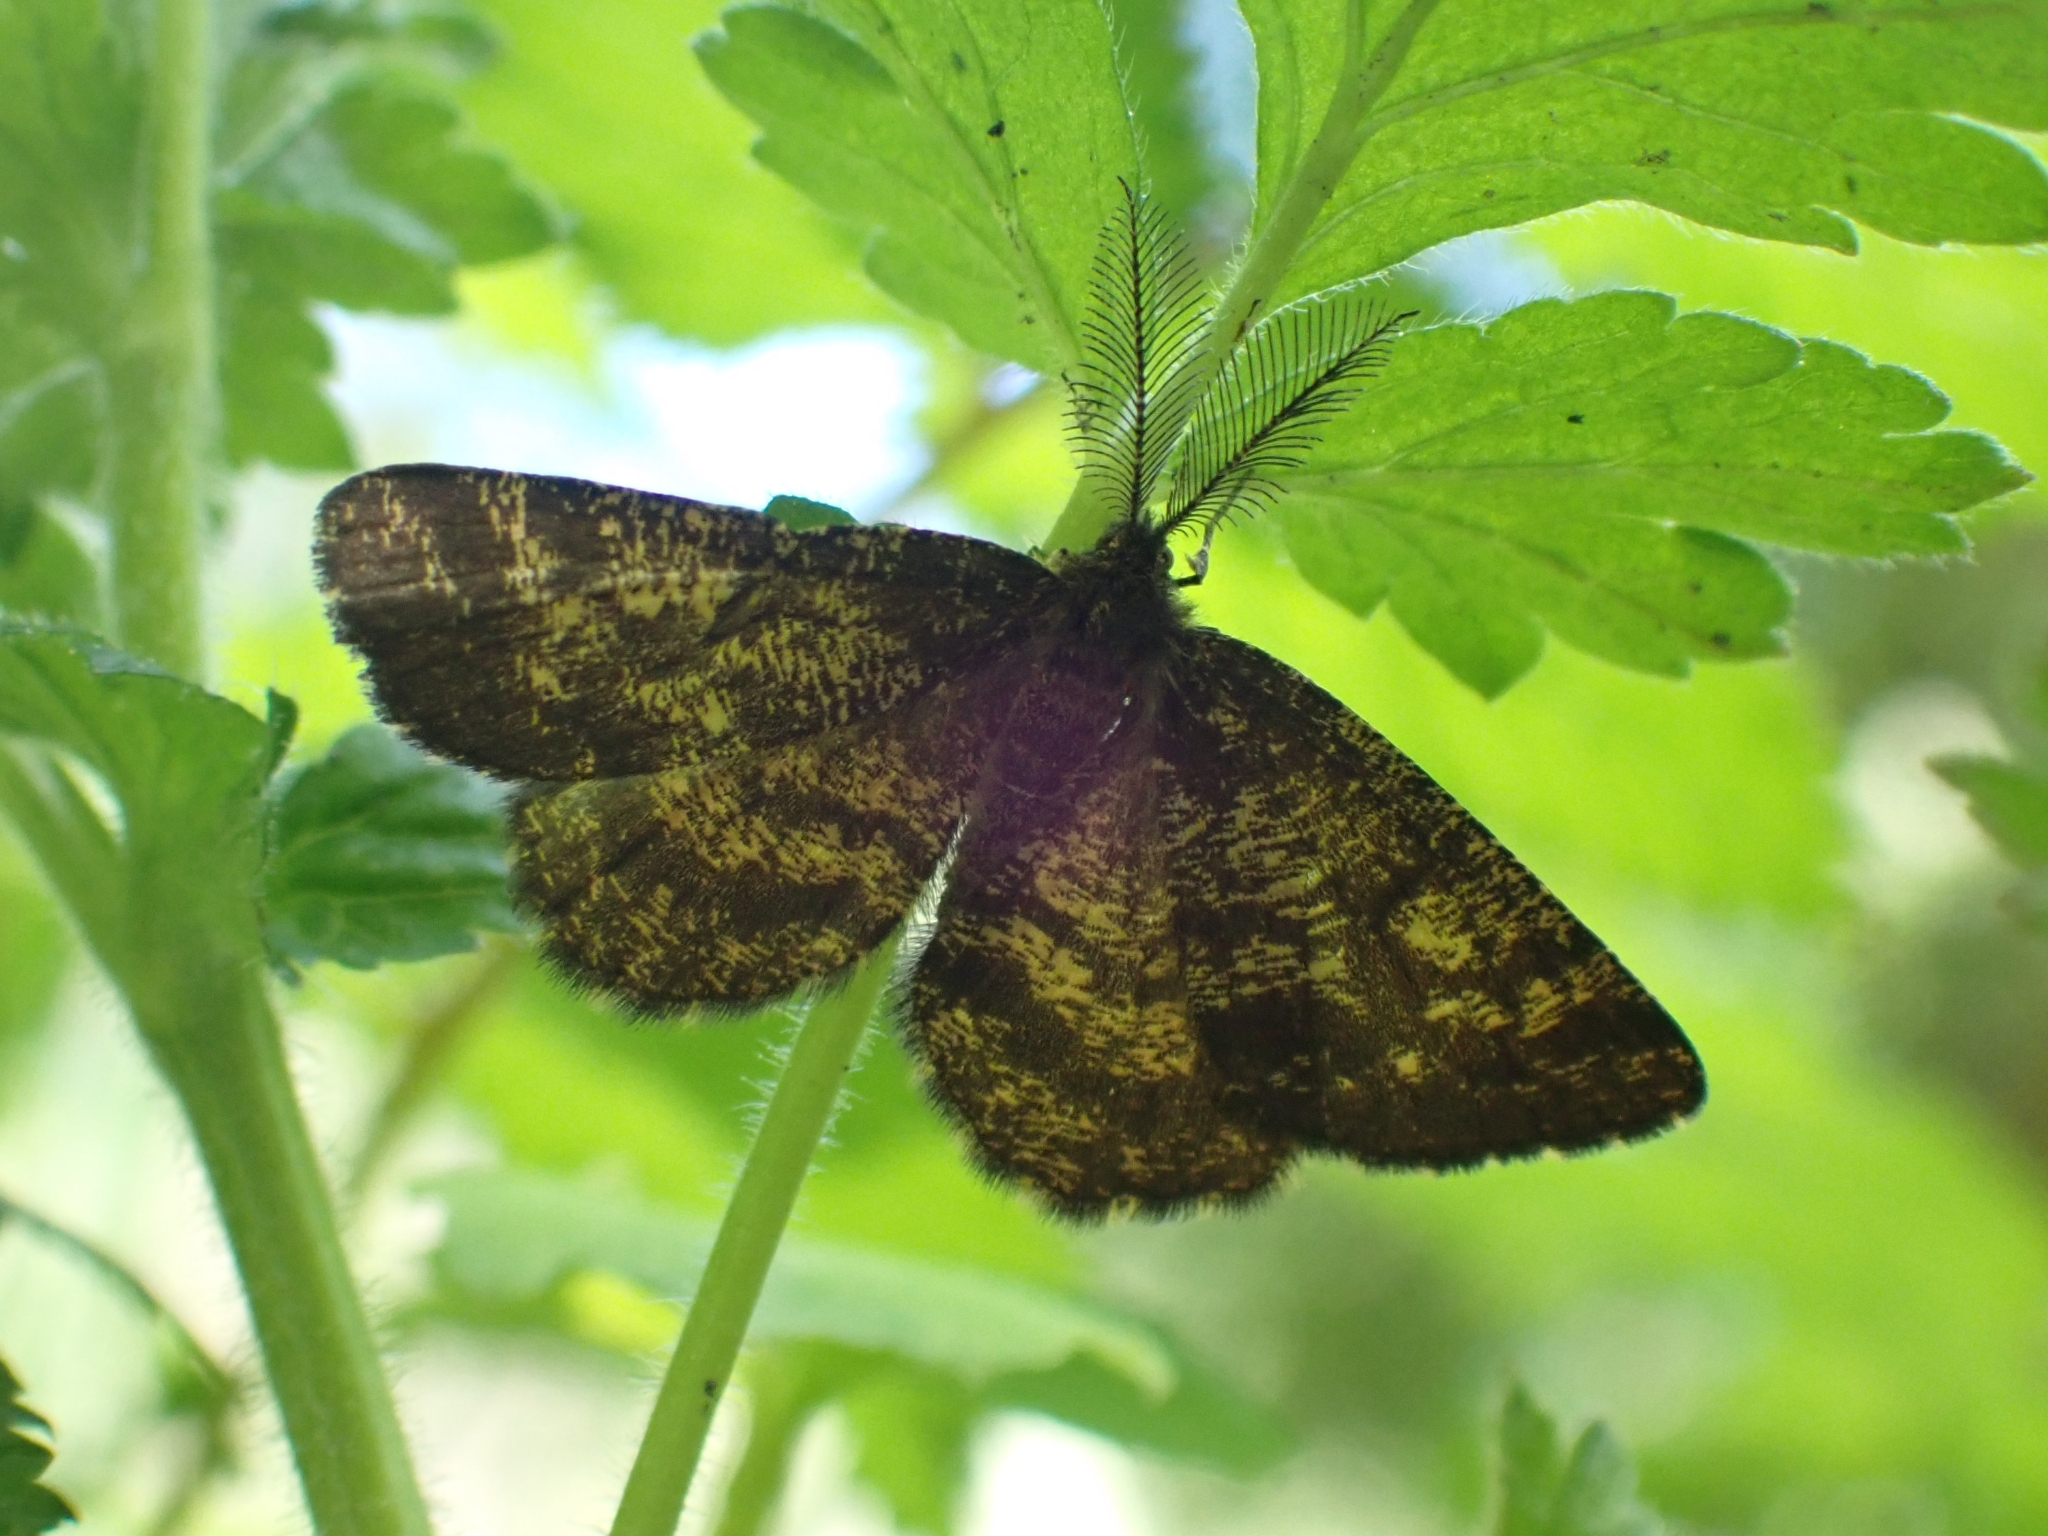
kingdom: Animalia
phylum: Arthropoda
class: Insecta
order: Lepidoptera
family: Geometridae
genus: Ematurga
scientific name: Ematurga atomaria
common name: Common heath
